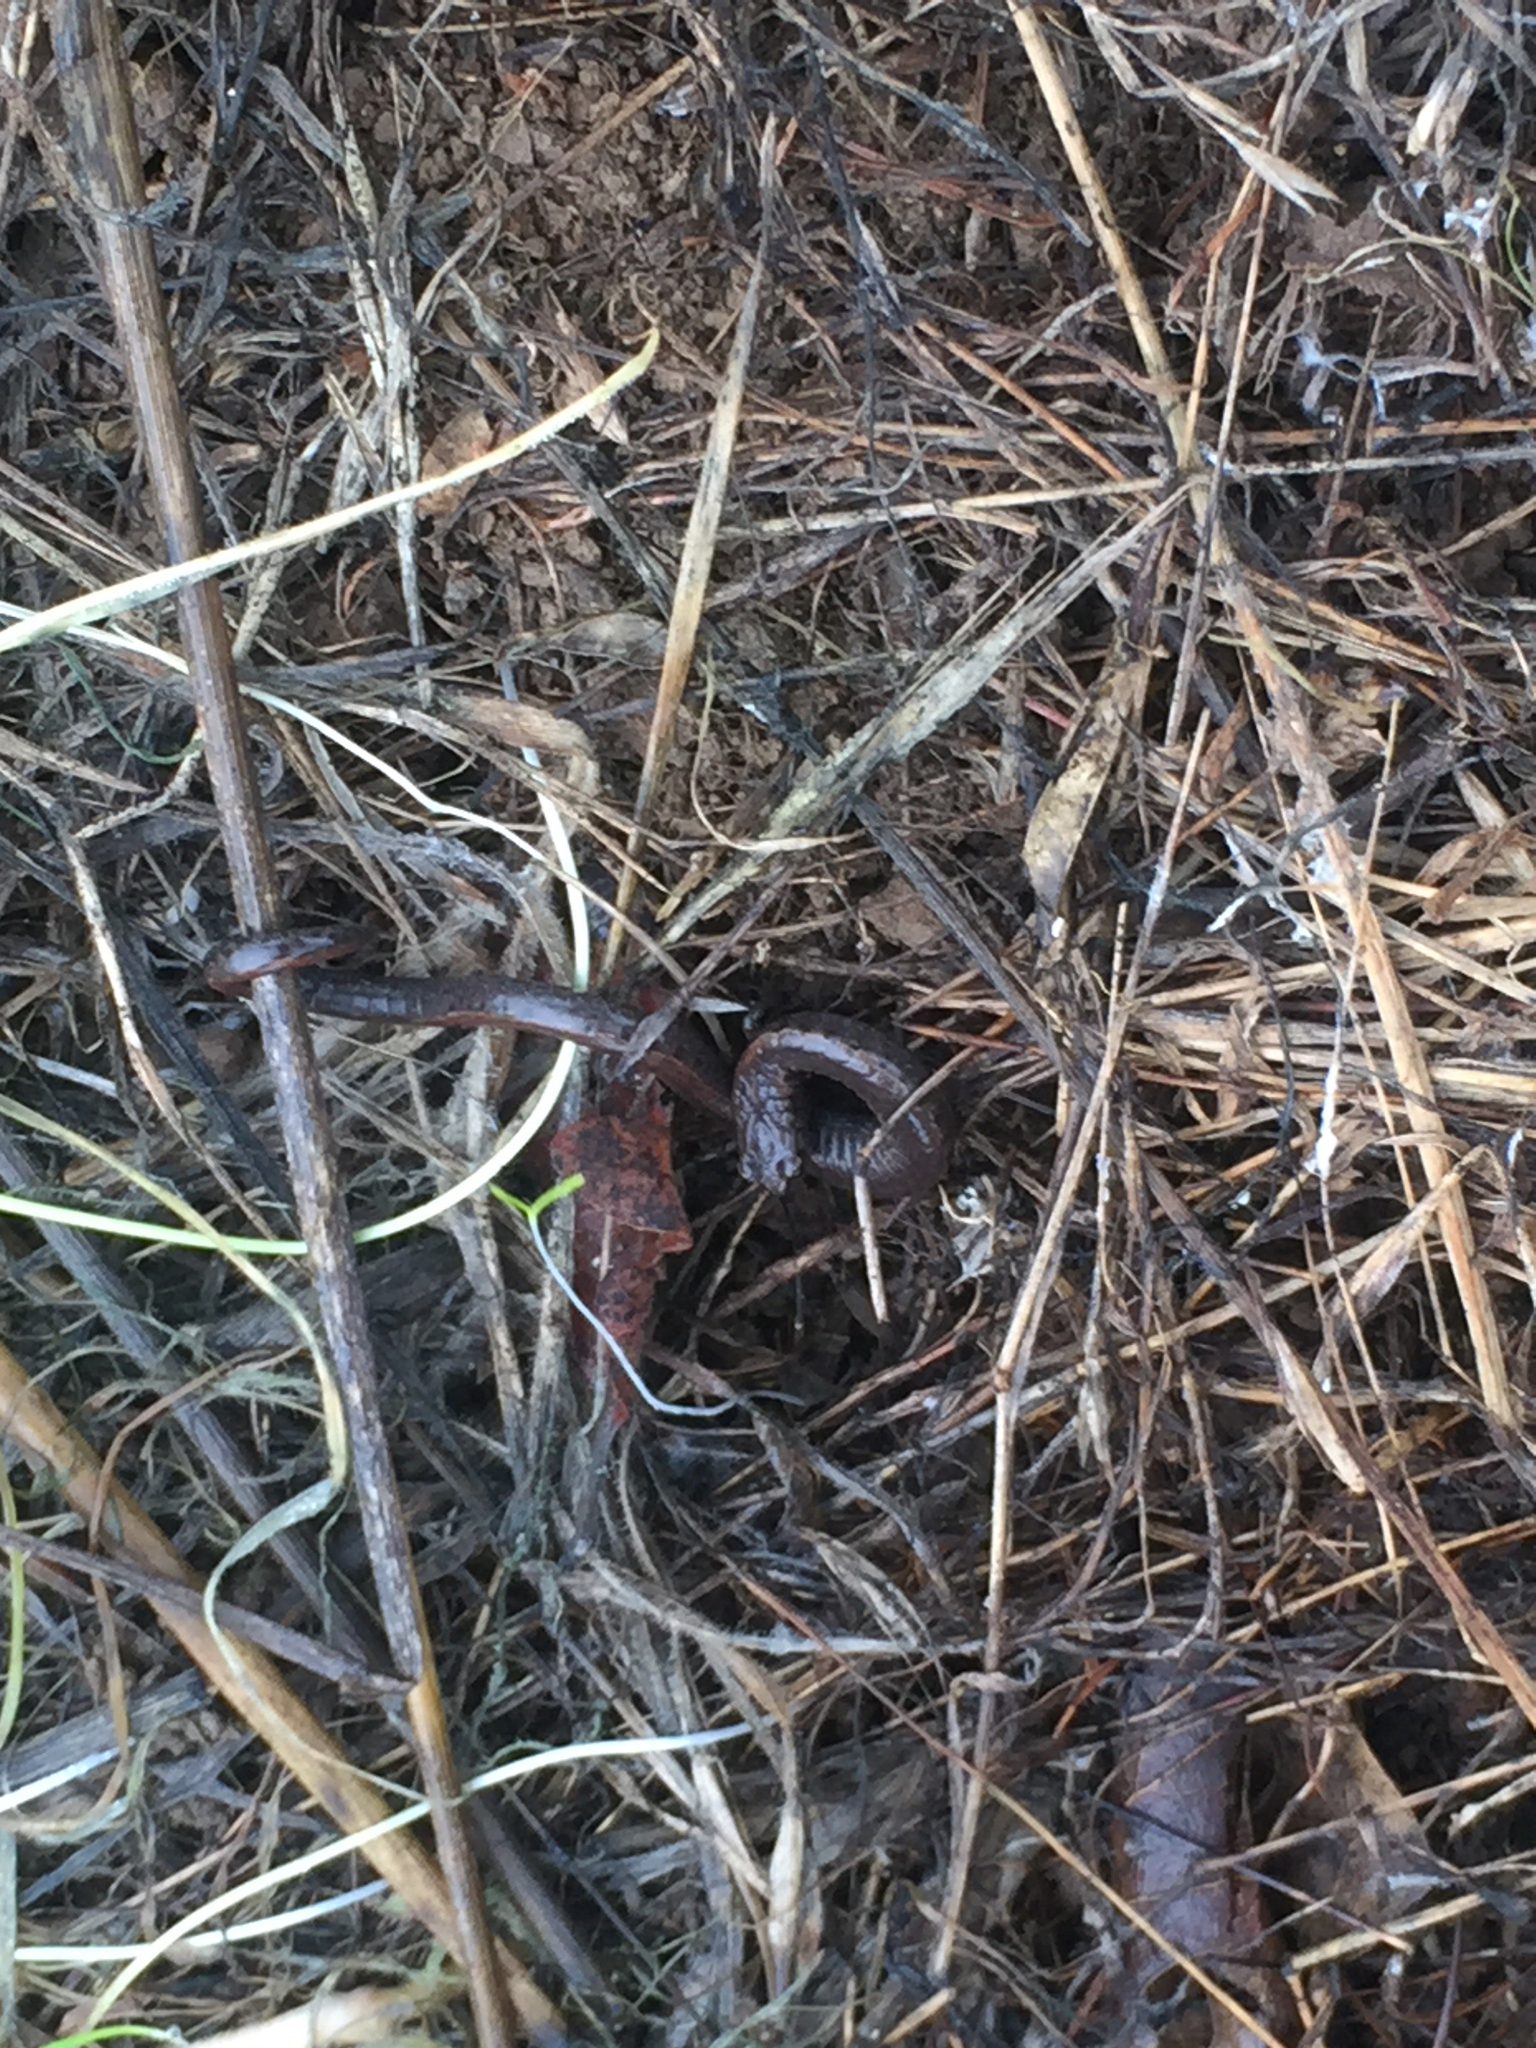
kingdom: Animalia
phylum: Chordata
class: Amphibia
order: Caudata
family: Plethodontidae
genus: Batrachoseps
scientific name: Batrachoseps attenuatus
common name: California slender salamander
